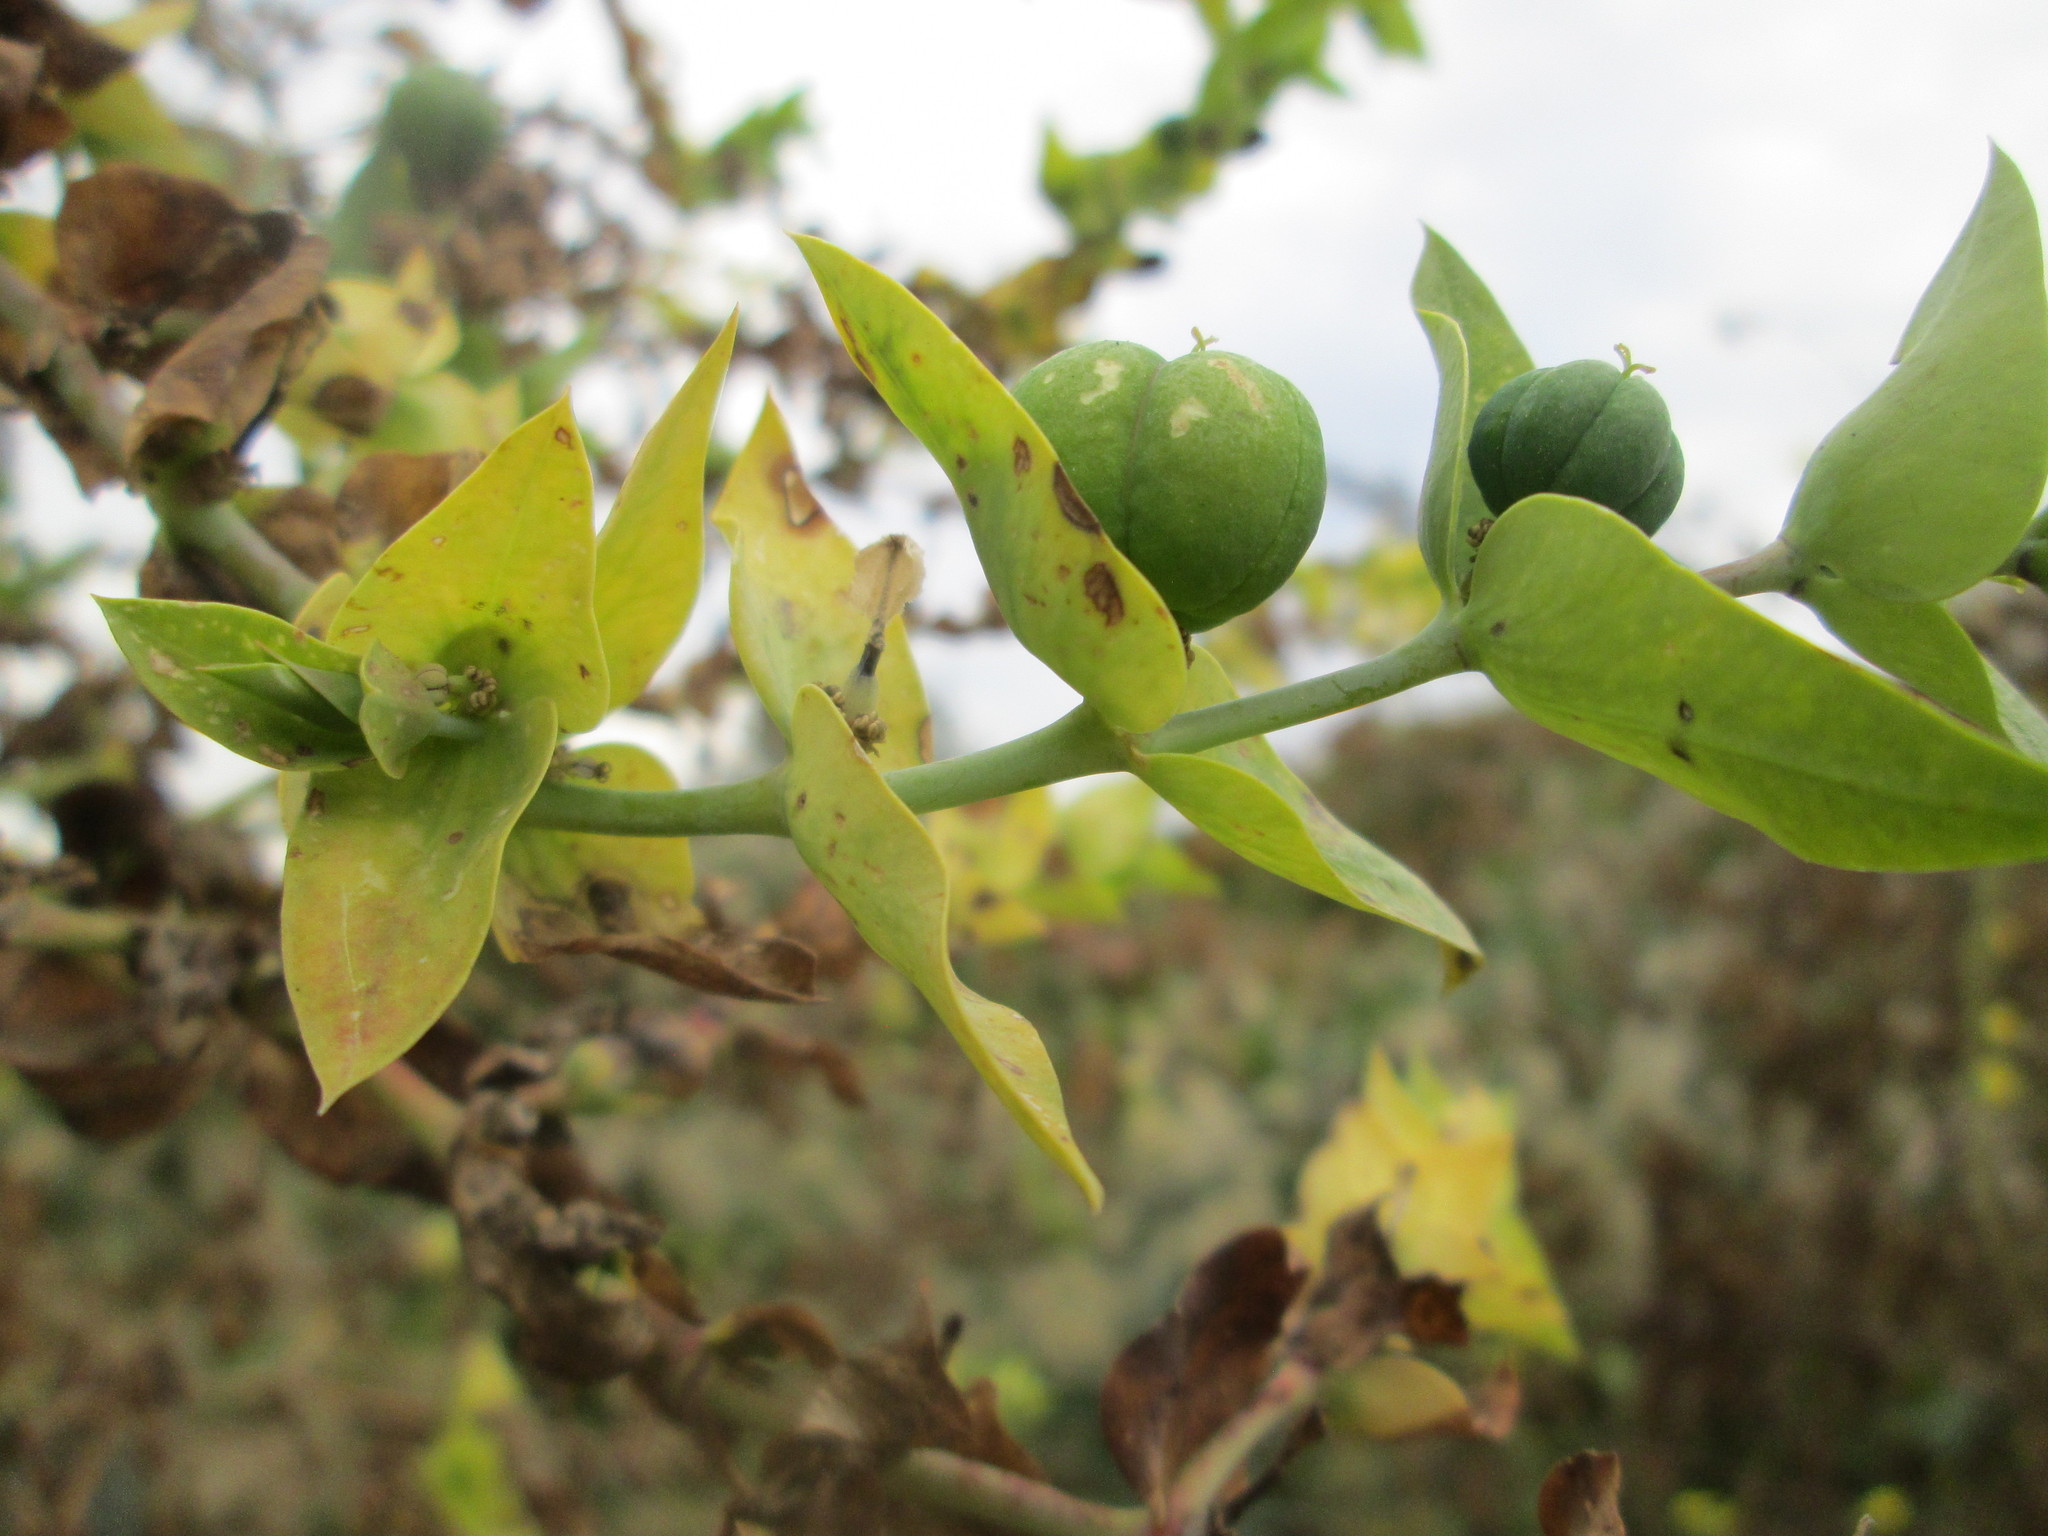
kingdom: Plantae
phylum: Tracheophyta
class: Magnoliopsida
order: Malpighiales
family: Euphorbiaceae
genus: Euphorbia
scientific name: Euphorbia lathyris
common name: Caper spurge
